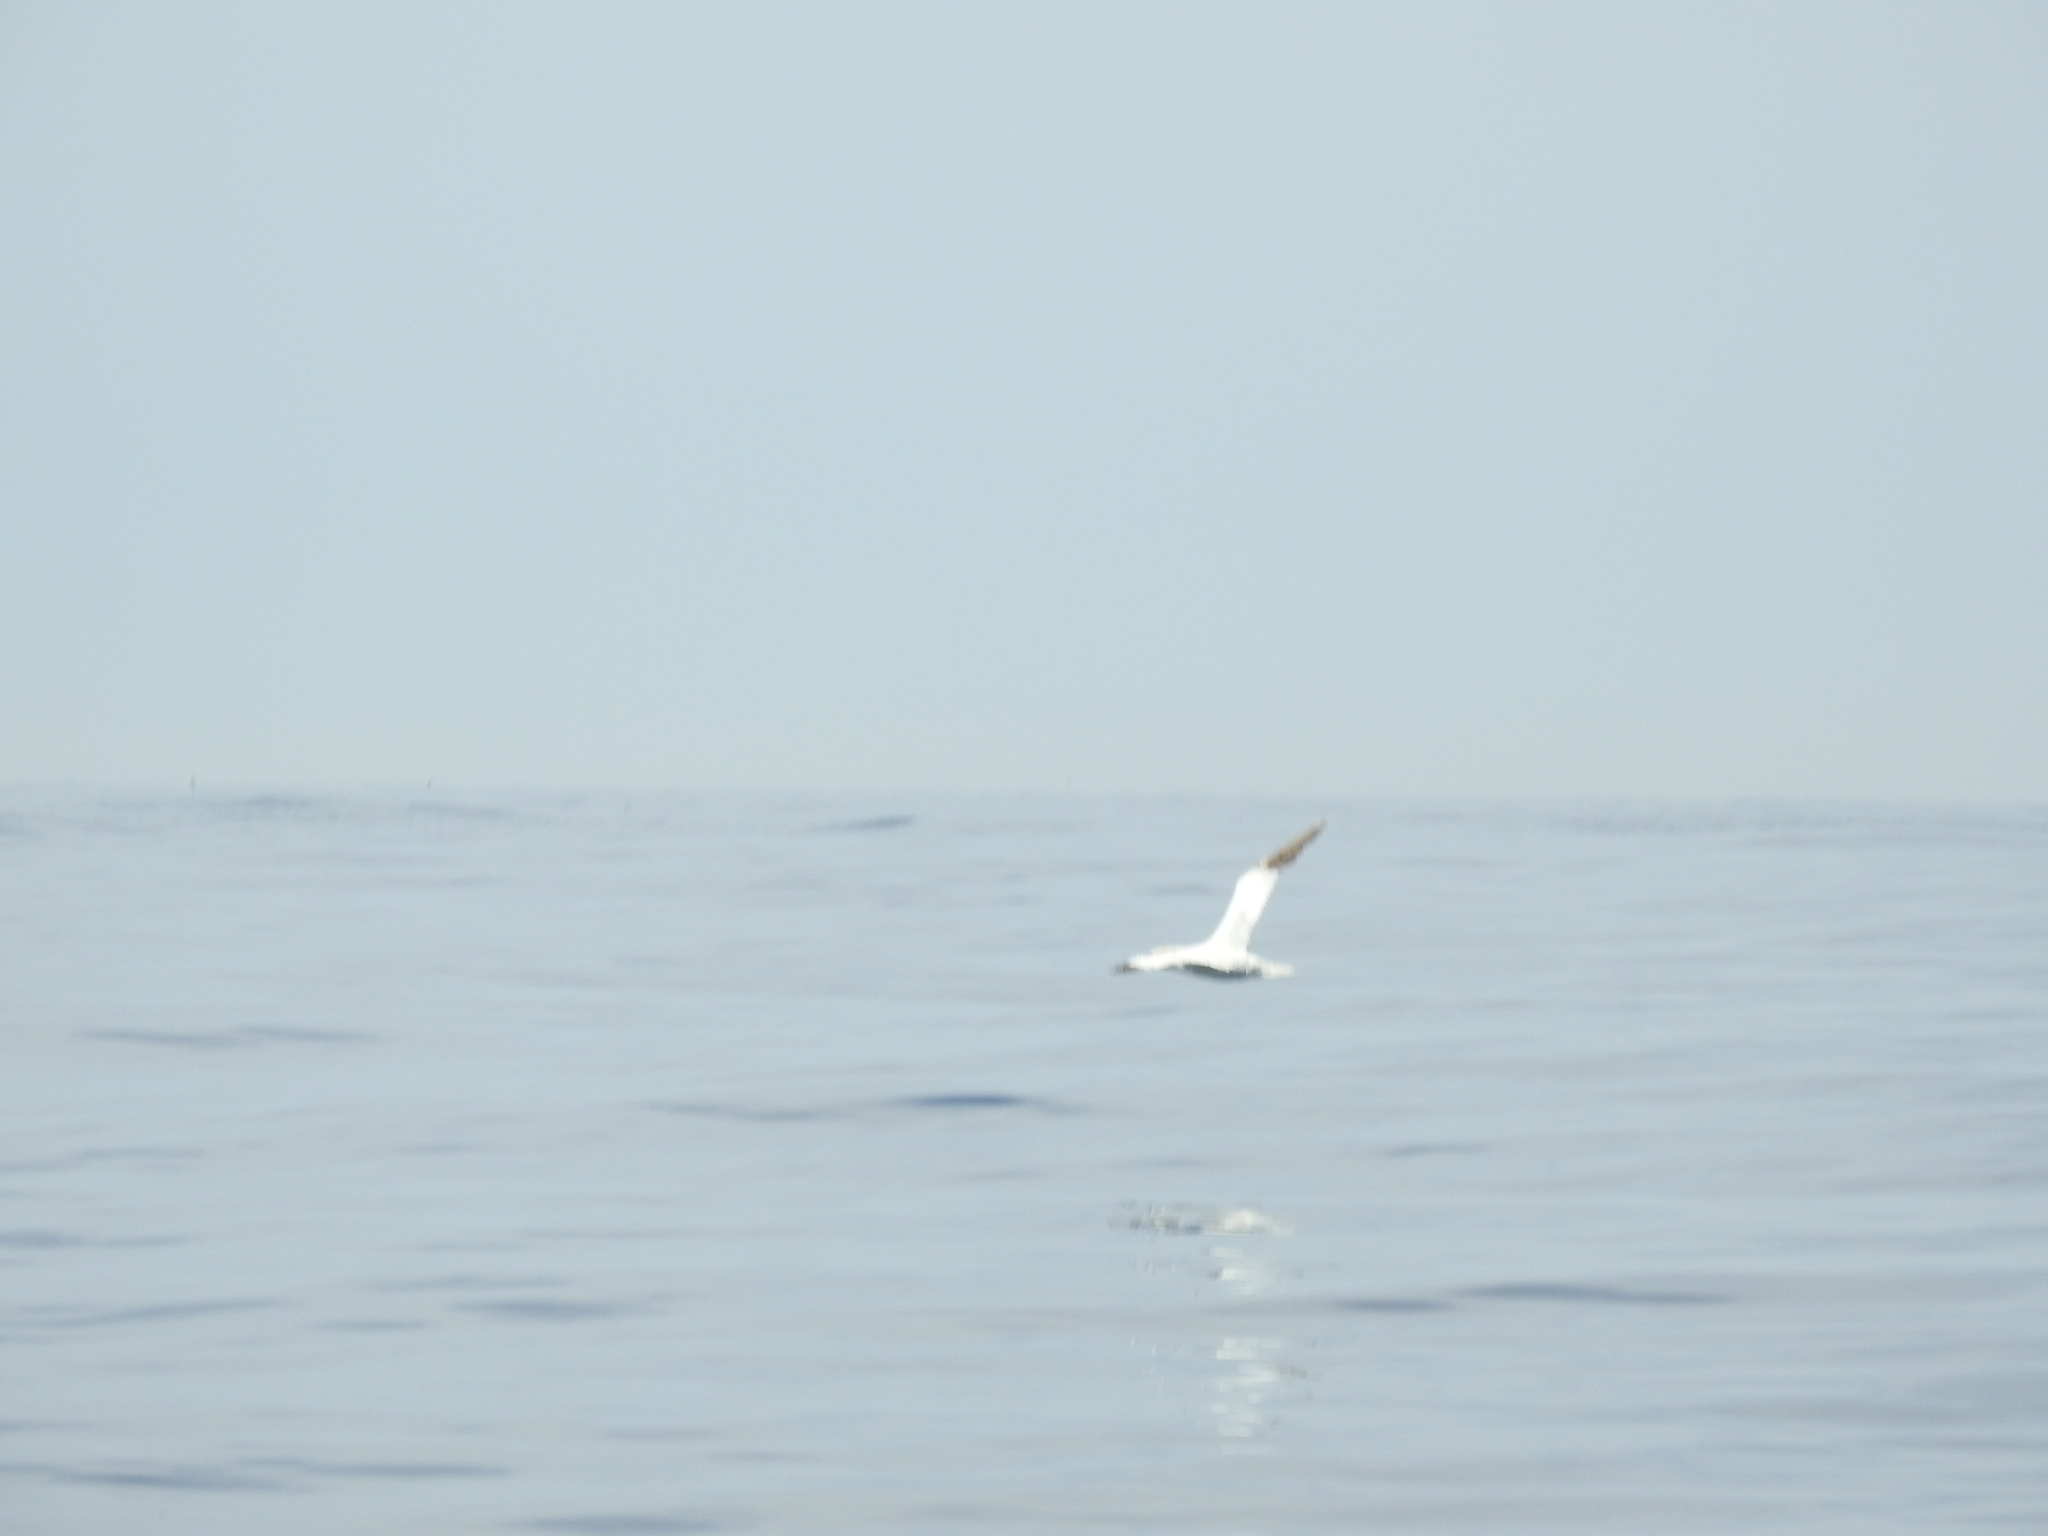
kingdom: Animalia
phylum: Chordata
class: Aves
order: Suliformes
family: Sulidae
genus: Morus
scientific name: Morus bassanus
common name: Northern gannet
